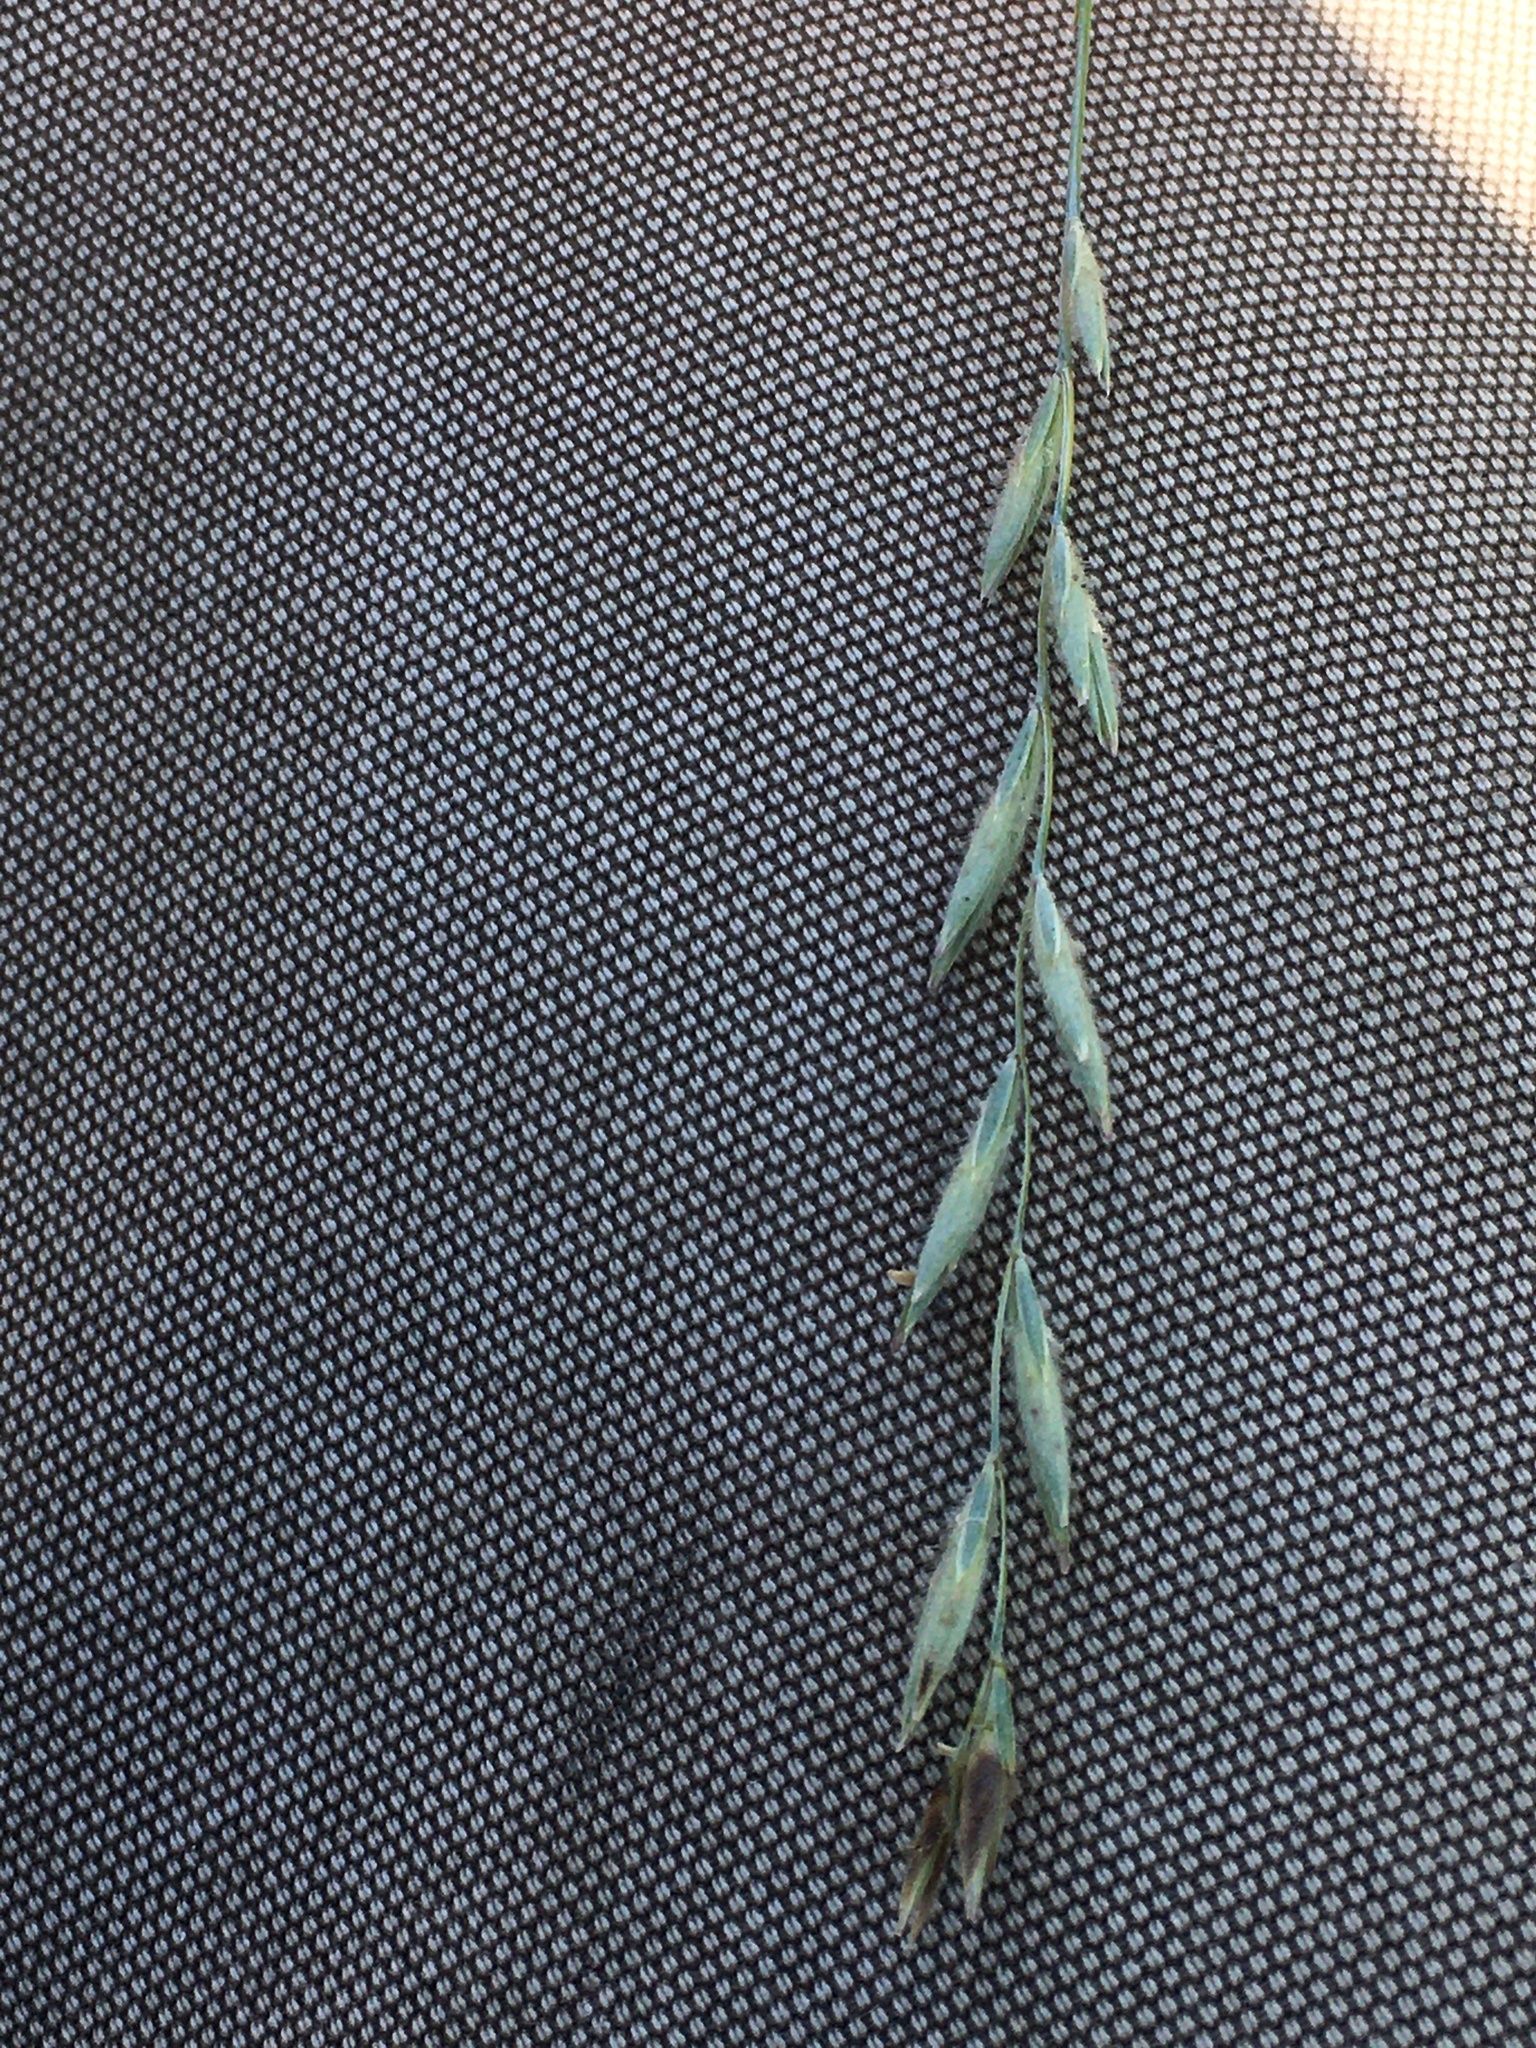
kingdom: Plantae
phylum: Tracheophyta
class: Liliopsida
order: Poales
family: Poaceae
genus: Elymus
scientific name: Elymus lanceolatus
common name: Thick-spike wheatgrass
